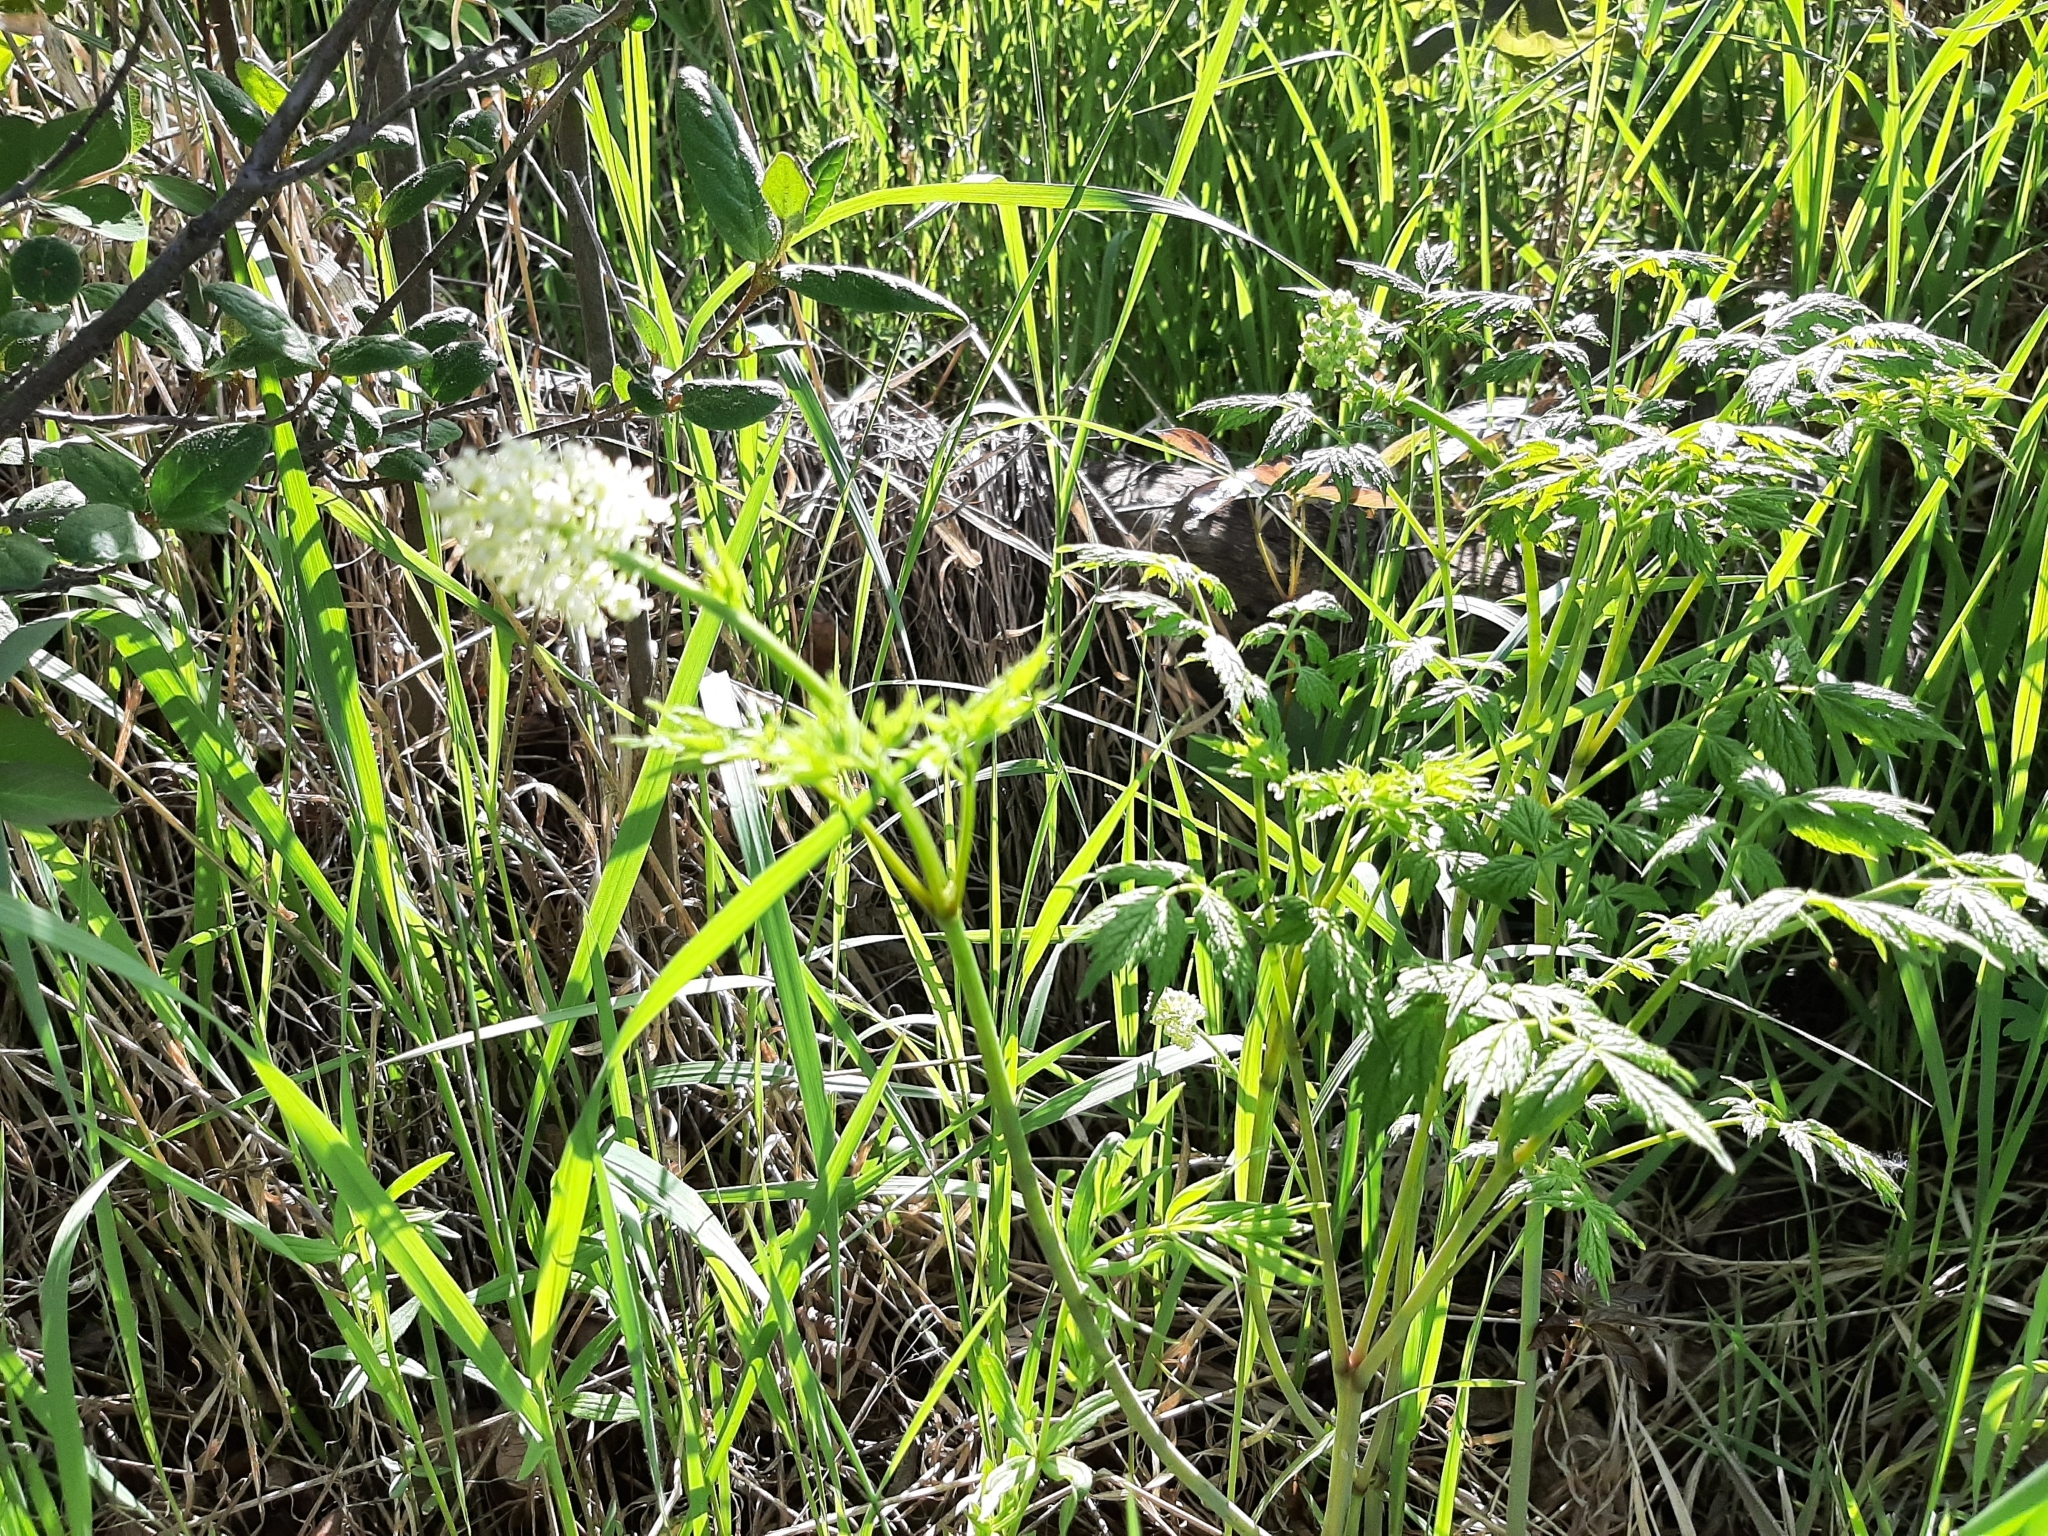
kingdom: Plantae
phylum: Tracheophyta
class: Magnoliopsida
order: Ranunculales
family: Ranunculaceae
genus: Actaea
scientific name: Actaea rubra
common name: Red baneberry
